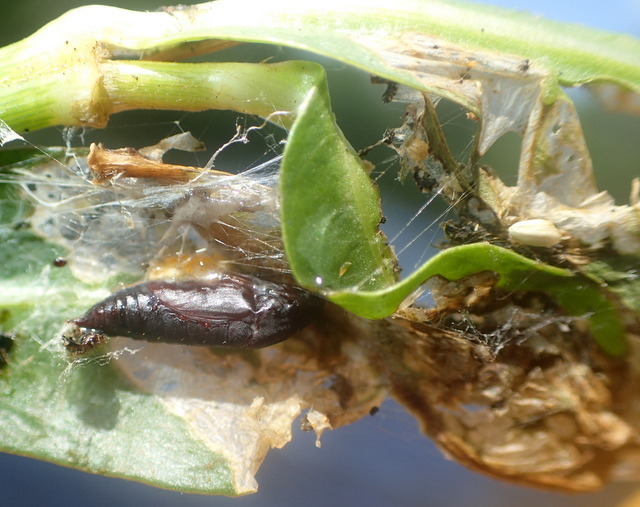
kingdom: Animalia
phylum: Arthropoda
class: Insecta
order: Lepidoptera
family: Crambidae
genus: Herpetogramma
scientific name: Herpetogramma bipunctalis
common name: Southern beet webworm
